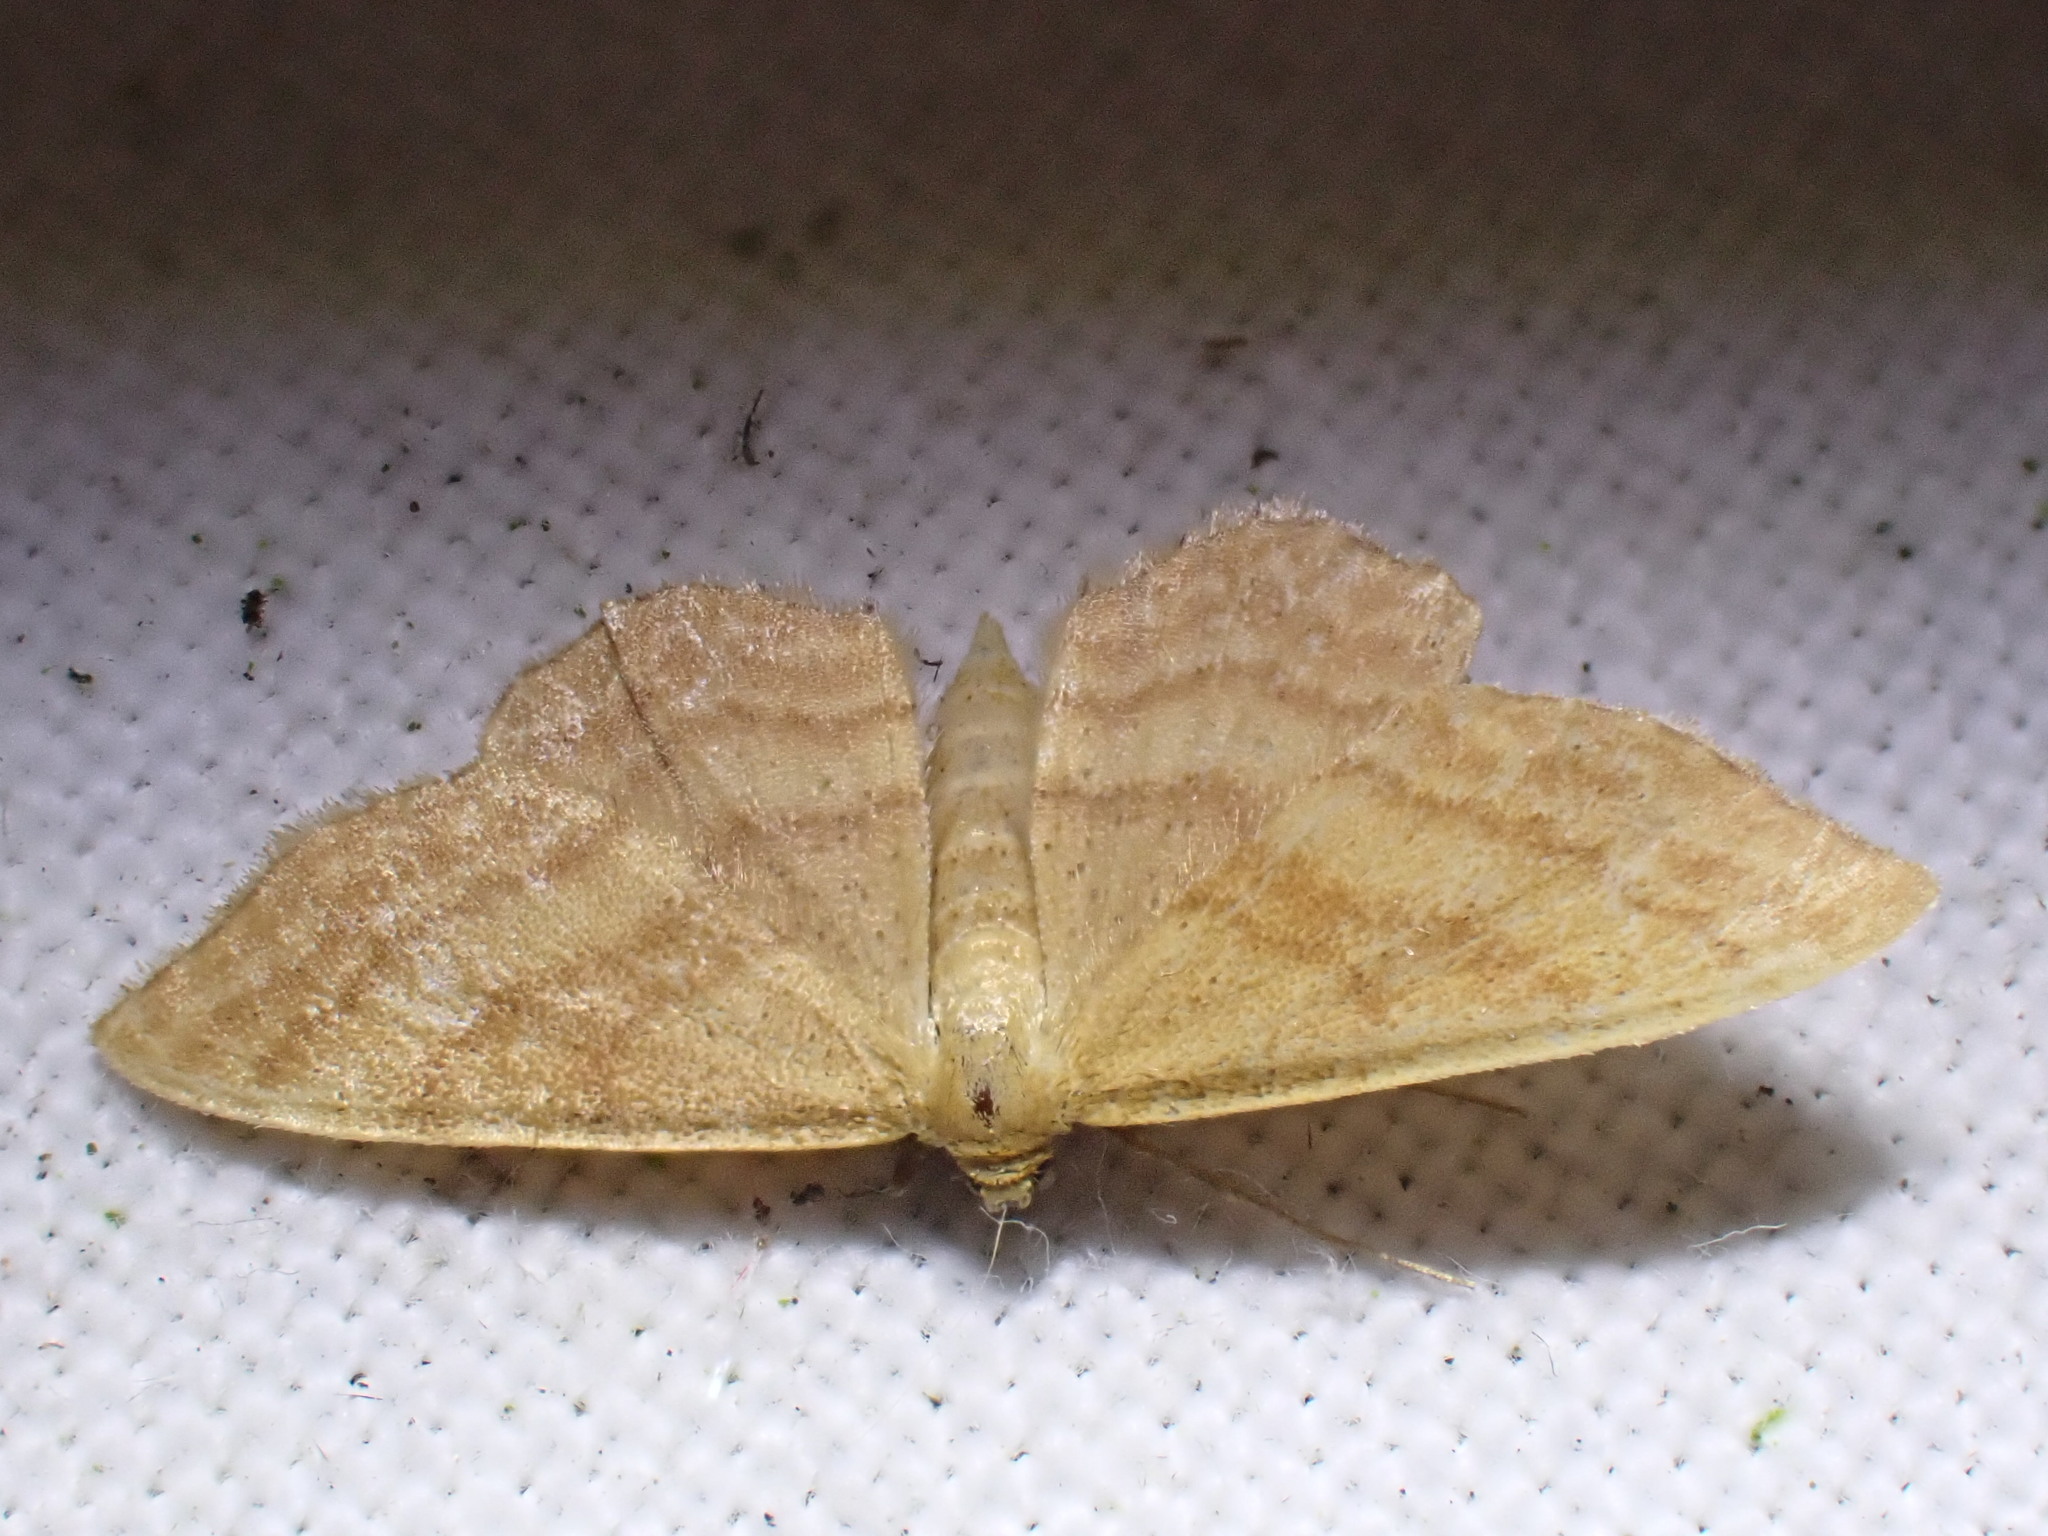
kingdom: Animalia
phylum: Arthropoda
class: Insecta
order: Lepidoptera
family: Geometridae
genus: Idaea
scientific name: Idaea ochrata
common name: Bright wave
